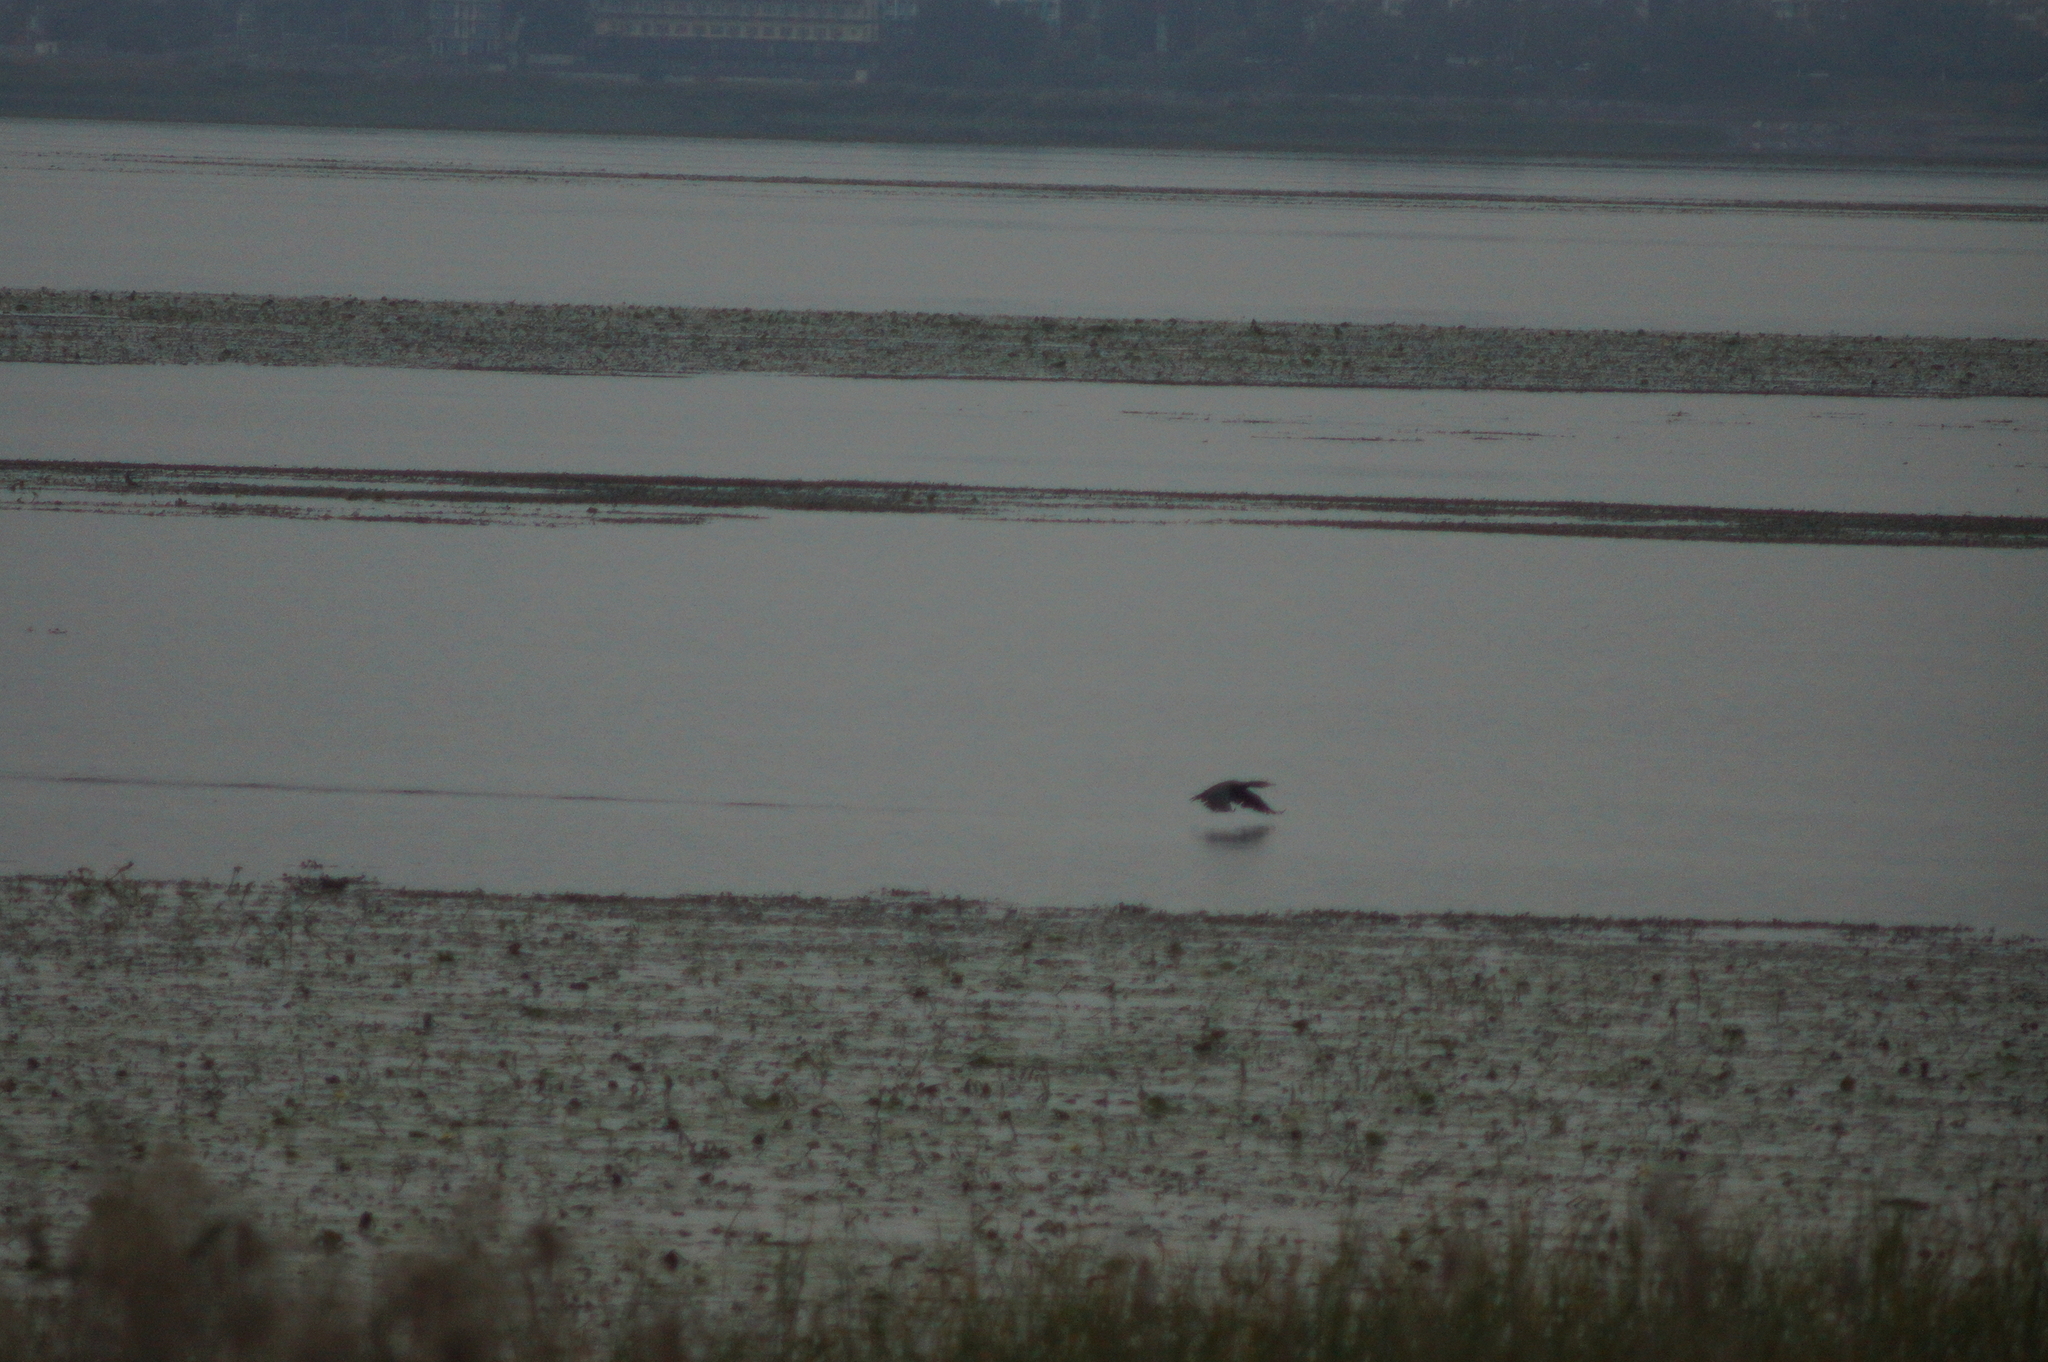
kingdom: Animalia
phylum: Chordata
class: Aves
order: Suliformes
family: Phalacrocoracidae
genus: Phalacrocorax
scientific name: Phalacrocorax carbo
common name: Great cormorant
